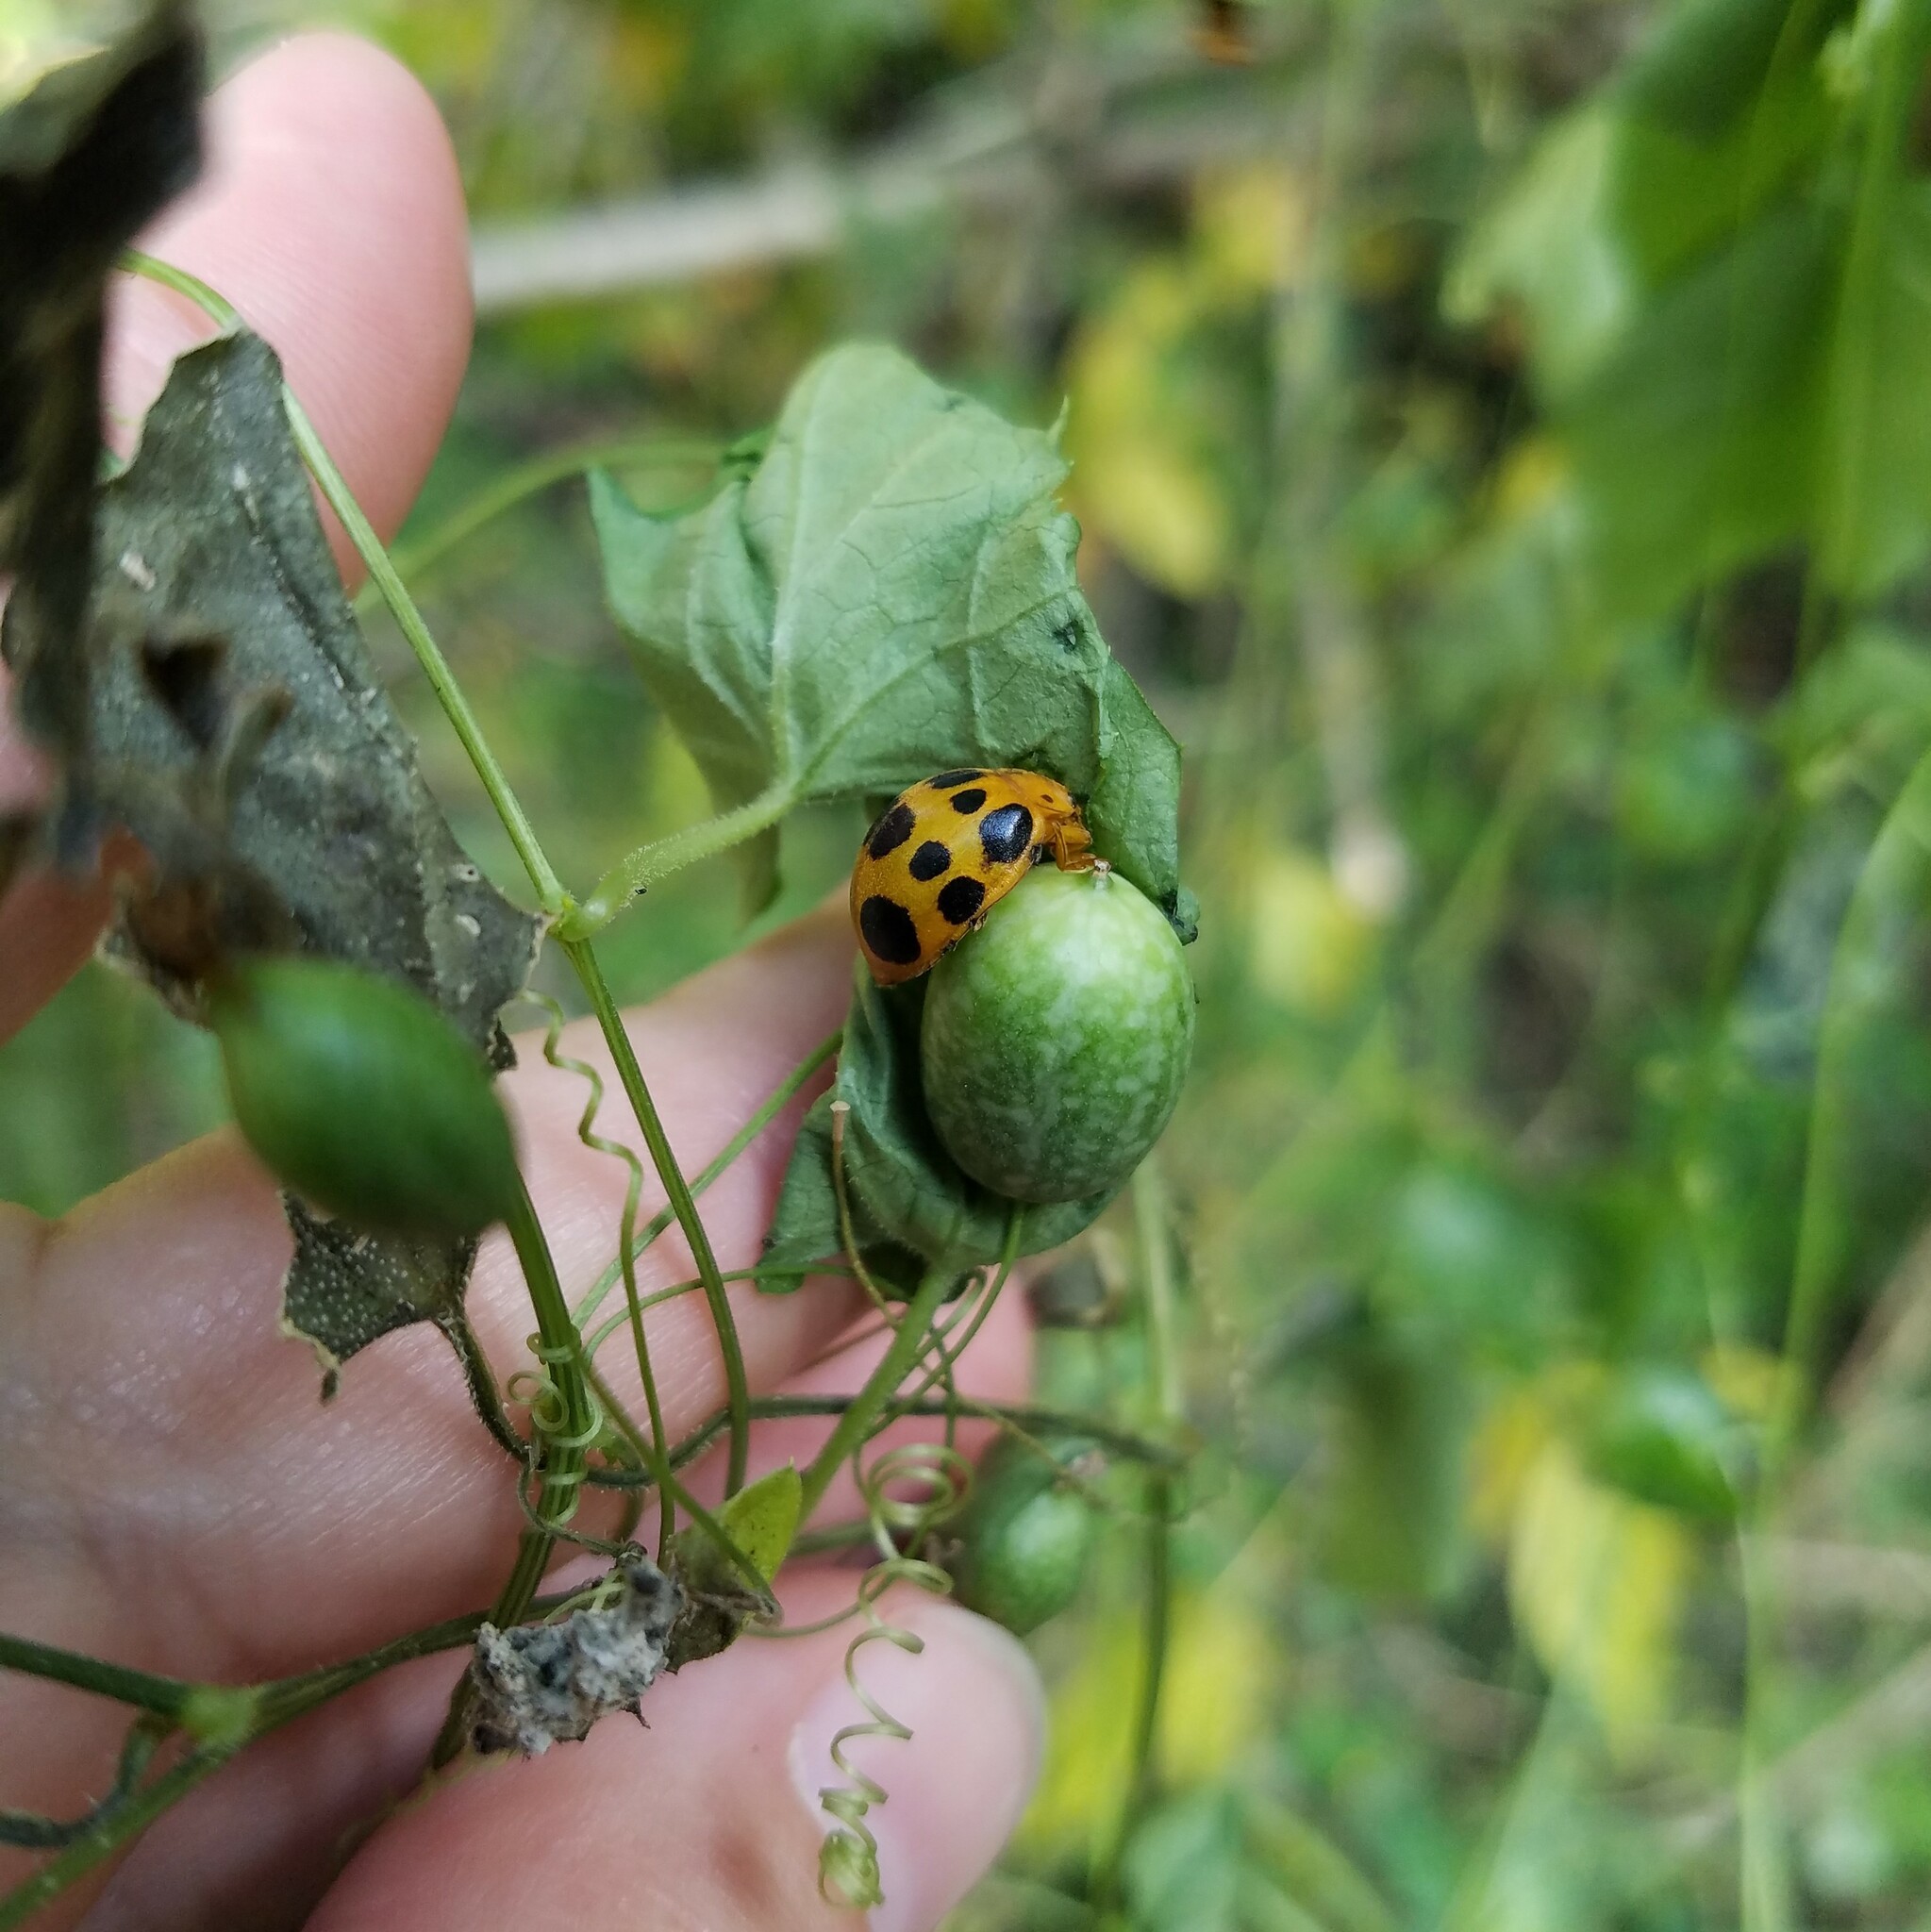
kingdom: Animalia
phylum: Arthropoda
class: Insecta
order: Coleoptera
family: Coccinellidae
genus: Epilachna
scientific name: Epilachna borealis
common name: Squash beetle
